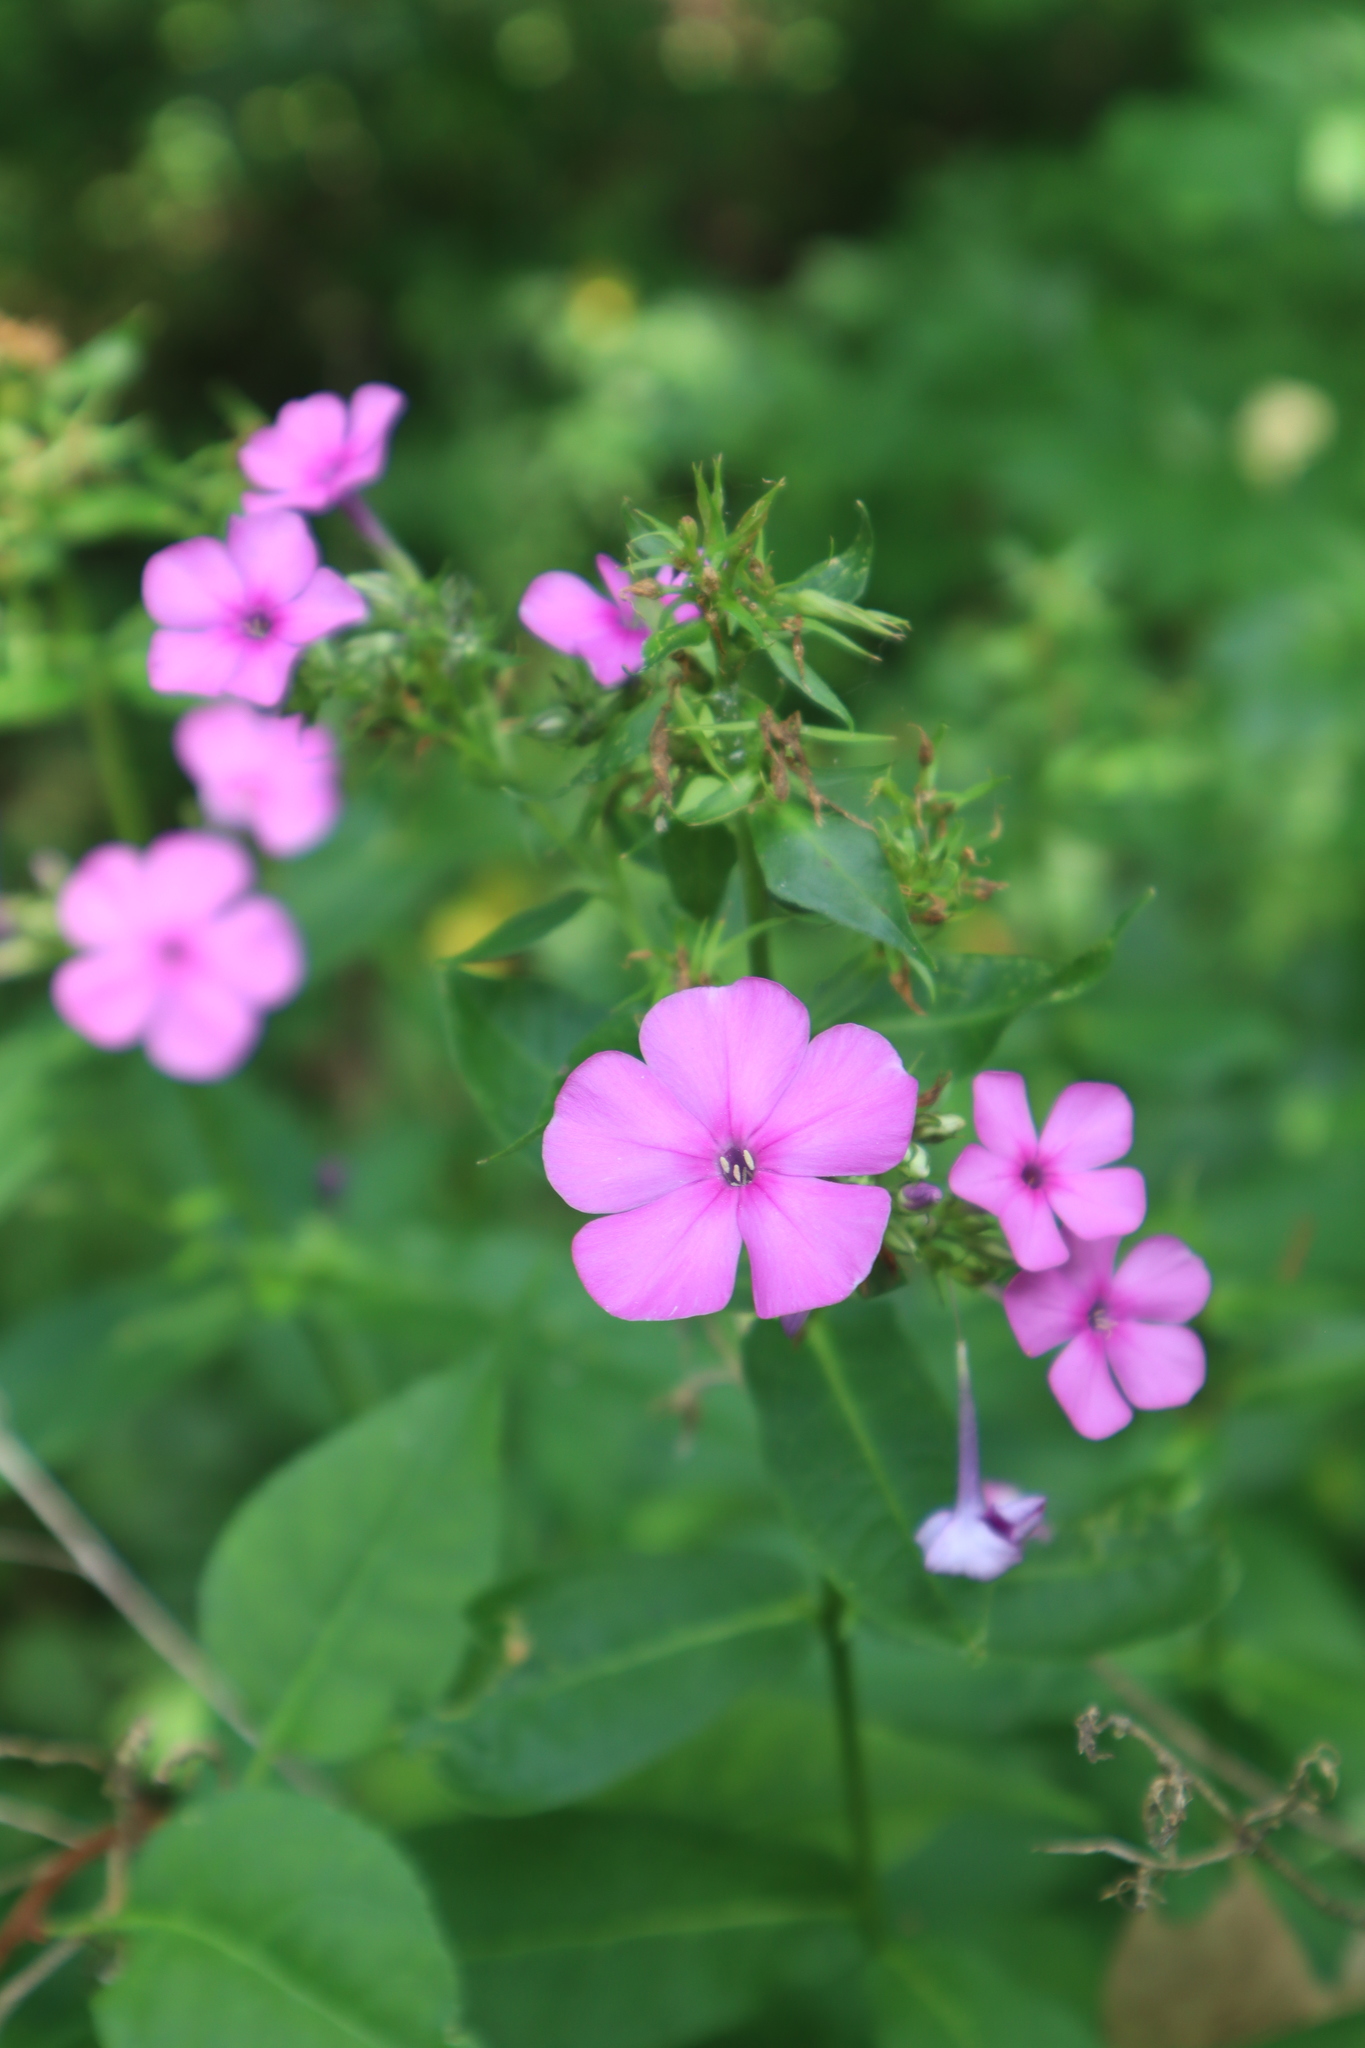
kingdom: Plantae
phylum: Tracheophyta
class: Magnoliopsida
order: Ericales
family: Polemoniaceae
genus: Phlox
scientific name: Phlox paniculata
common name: Fall phlox
